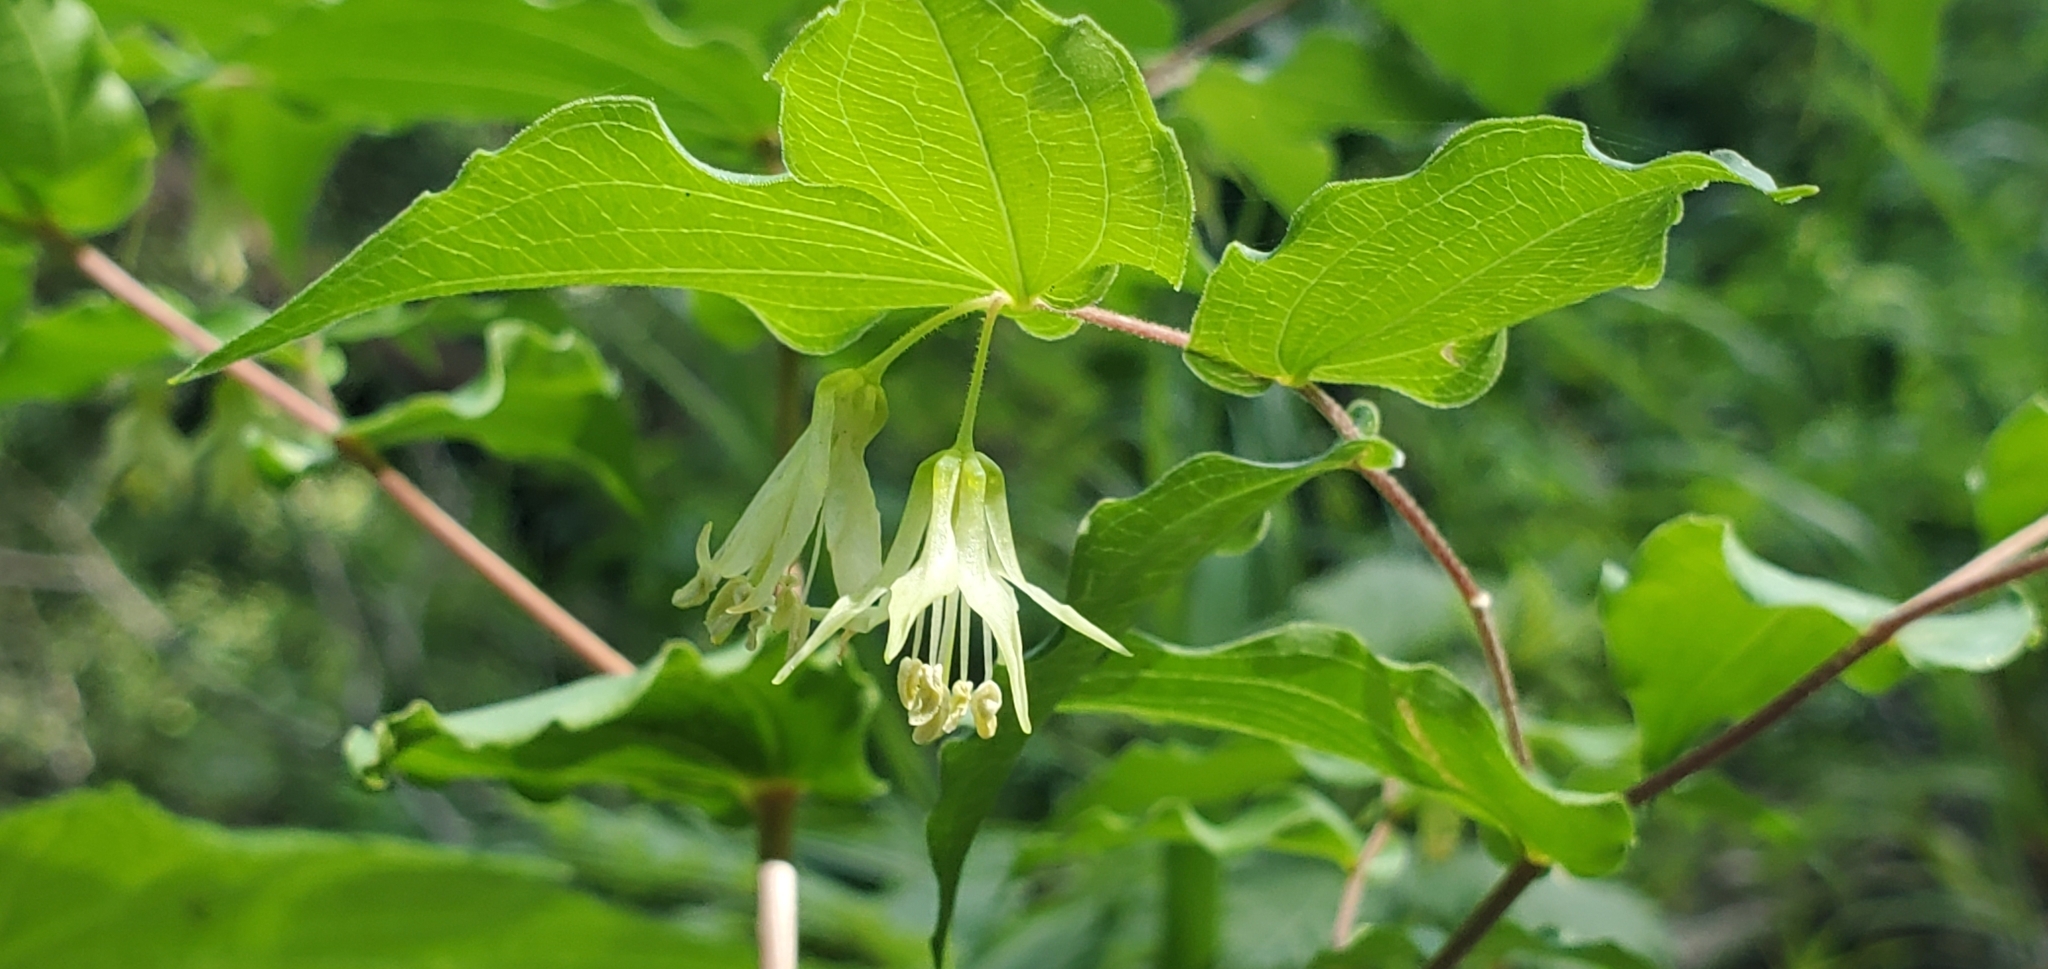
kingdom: Plantae
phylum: Tracheophyta
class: Liliopsida
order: Liliales
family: Liliaceae
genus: Prosartes
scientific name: Prosartes hookeri
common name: Fairy-bells
